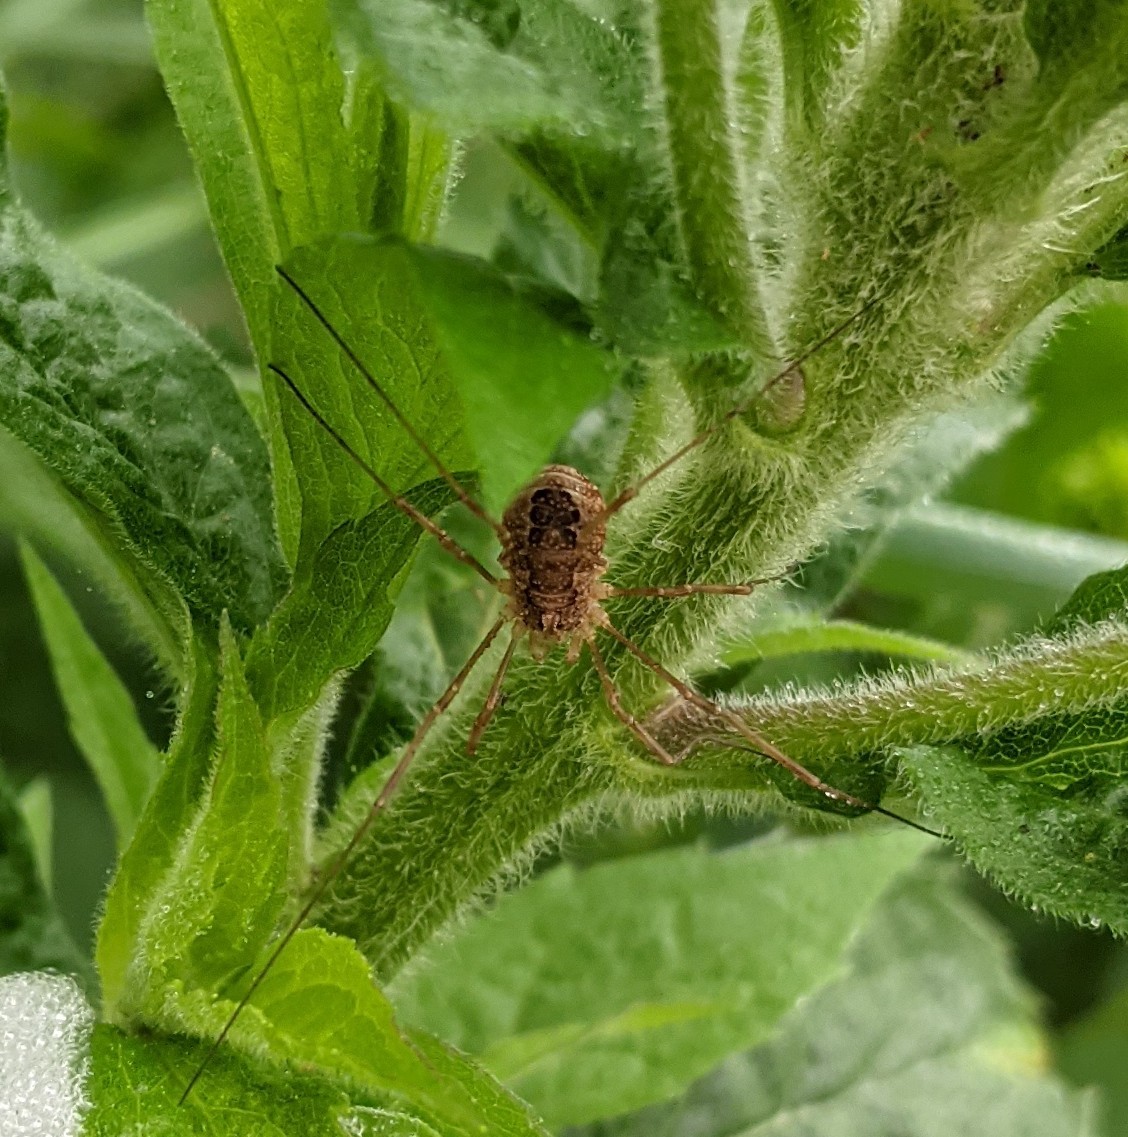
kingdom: Animalia
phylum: Arthropoda
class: Arachnida
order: Opiliones
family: Phalangiidae
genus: Rilaena
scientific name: Rilaena triangularis
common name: Spring harvestman
